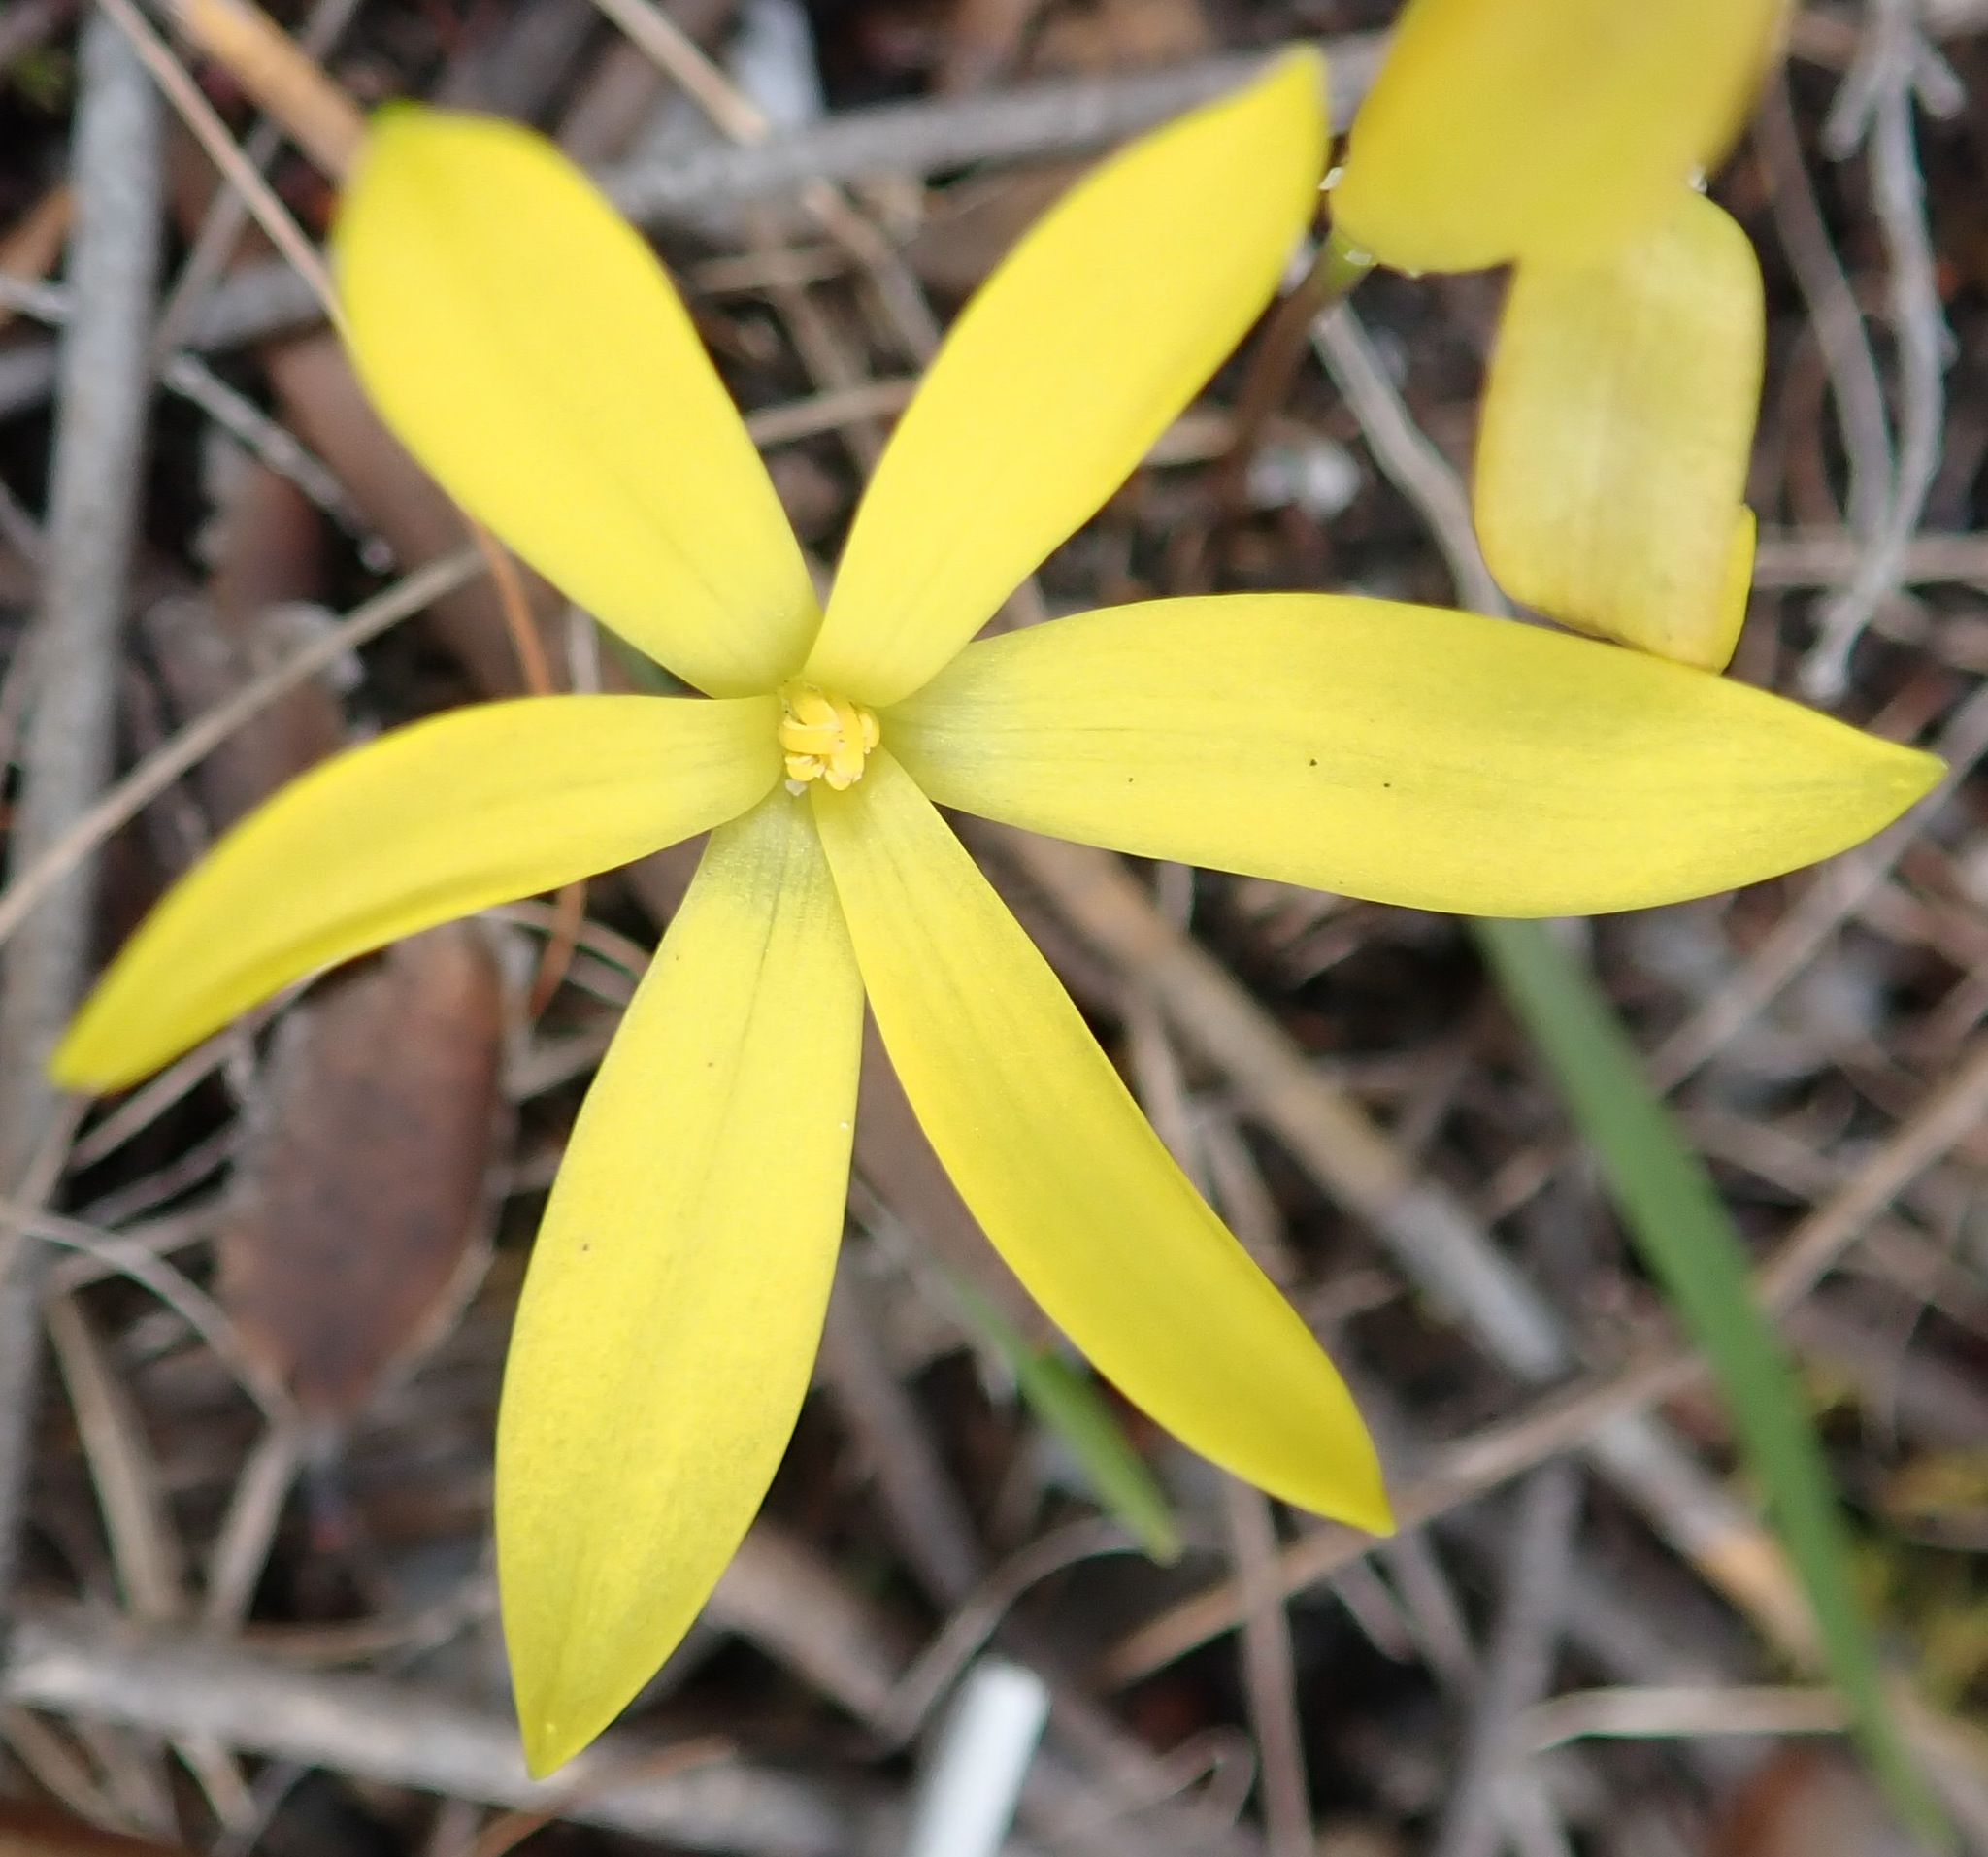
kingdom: Plantae
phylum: Tracheophyta
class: Liliopsida
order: Asparagales
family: Hypoxidaceae
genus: Pauridia
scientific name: Pauridia monophylla
